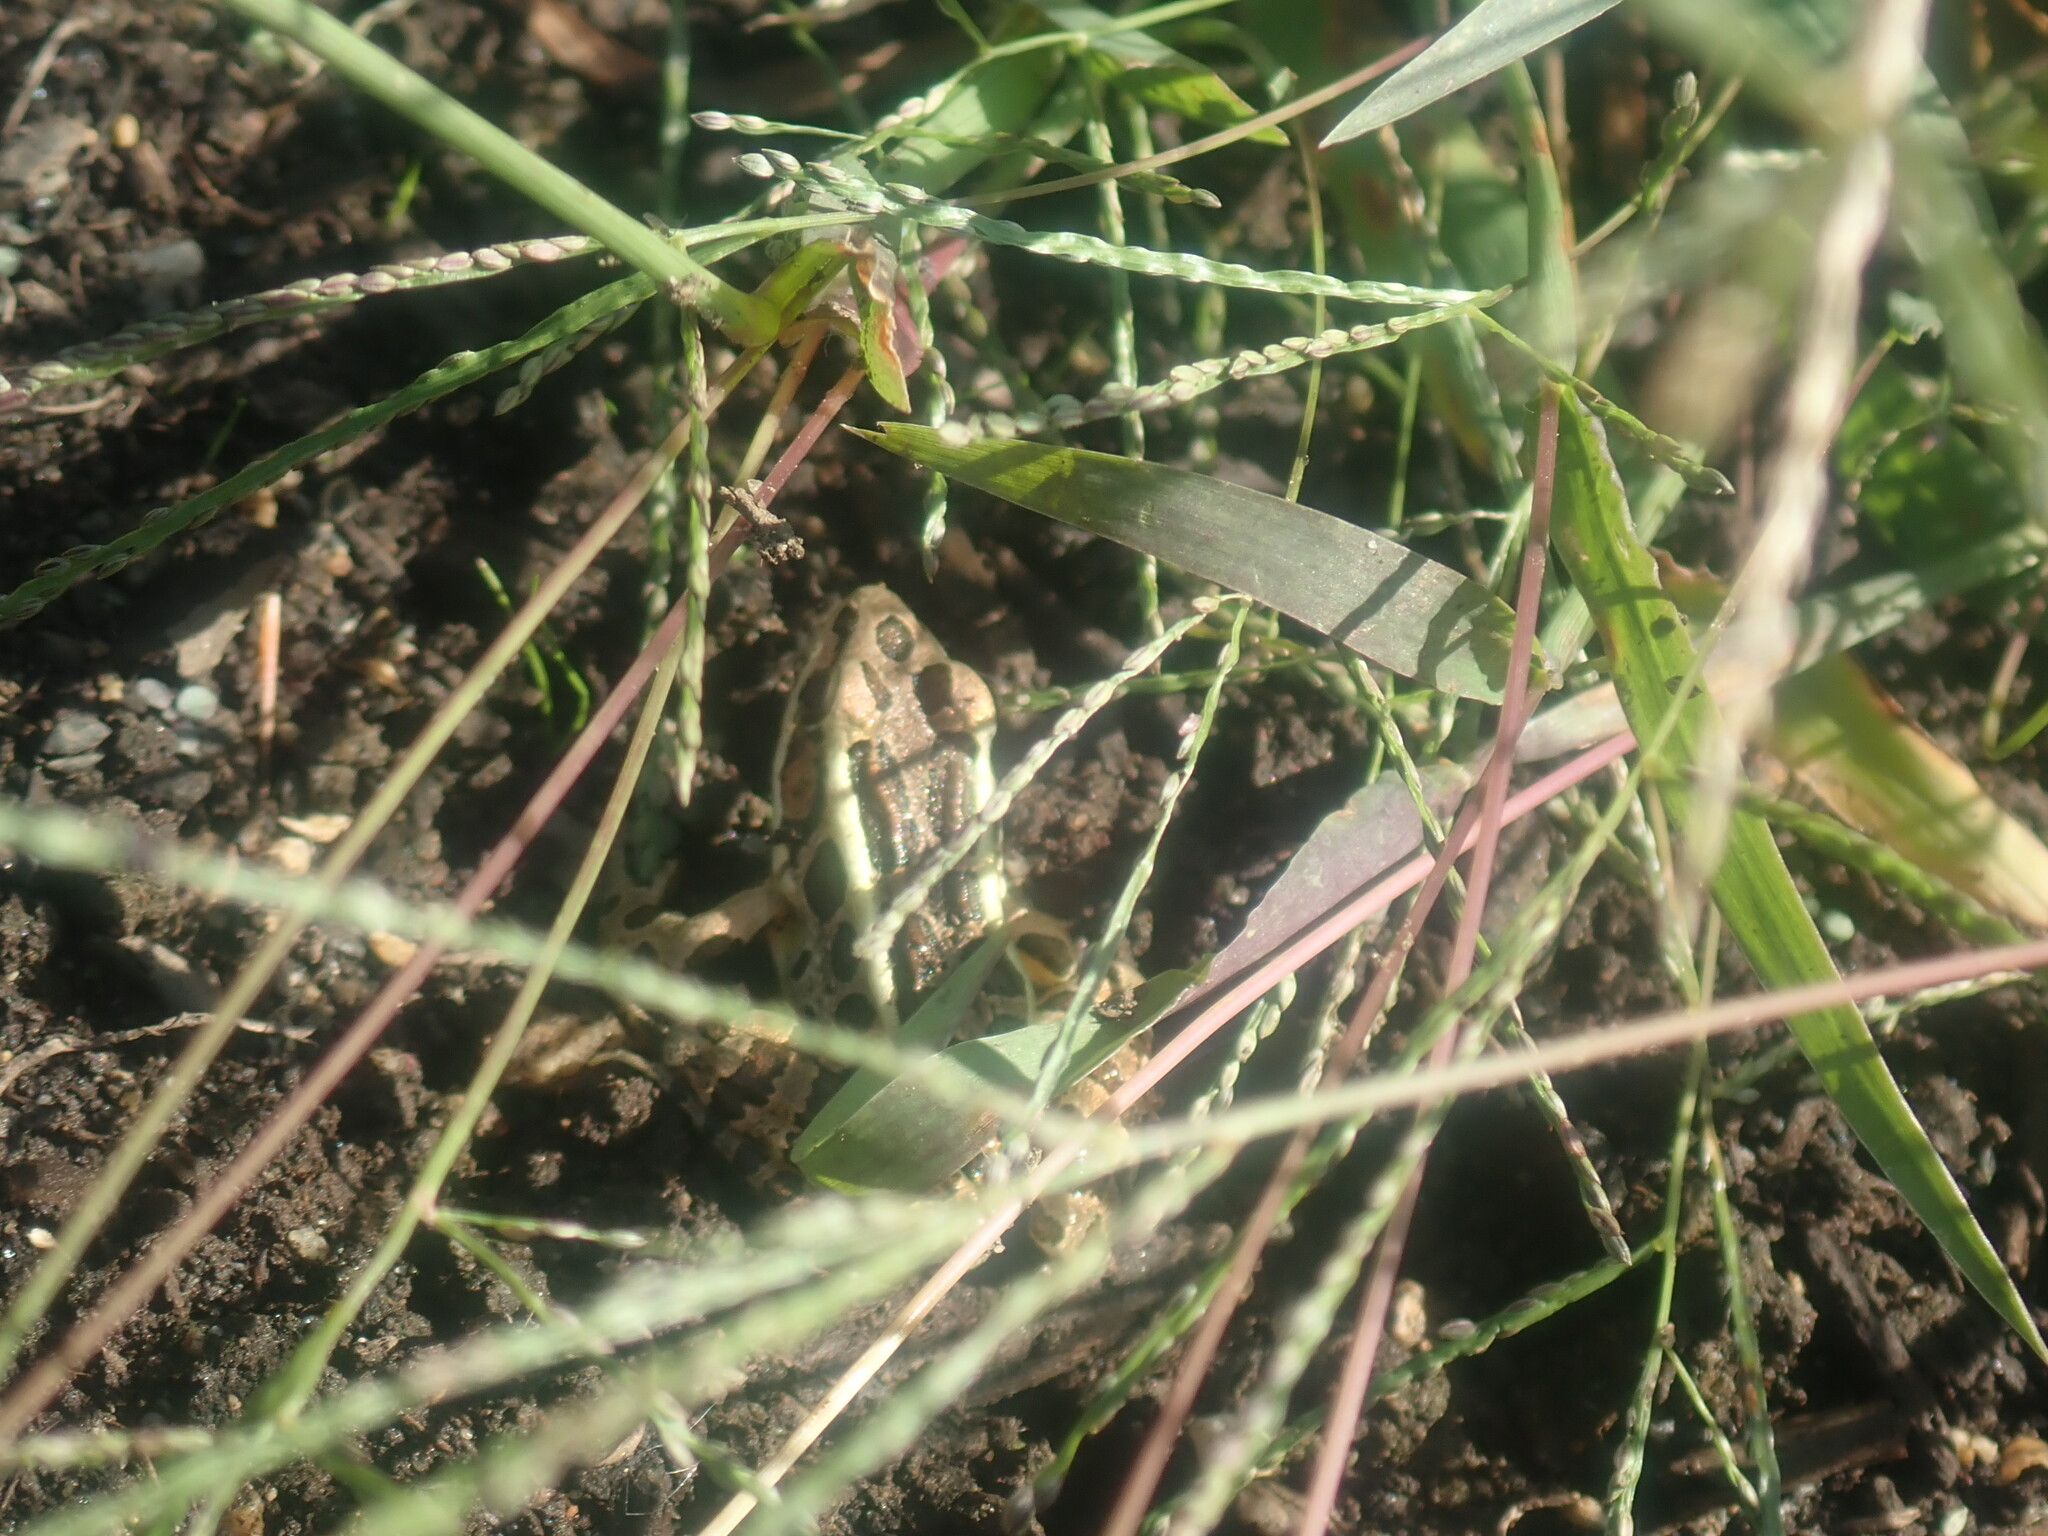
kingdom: Animalia
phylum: Chordata
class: Amphibia
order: Anura
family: Ranidae
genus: Lithobates
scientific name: Lithobates palustris
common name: Pickerel frog
